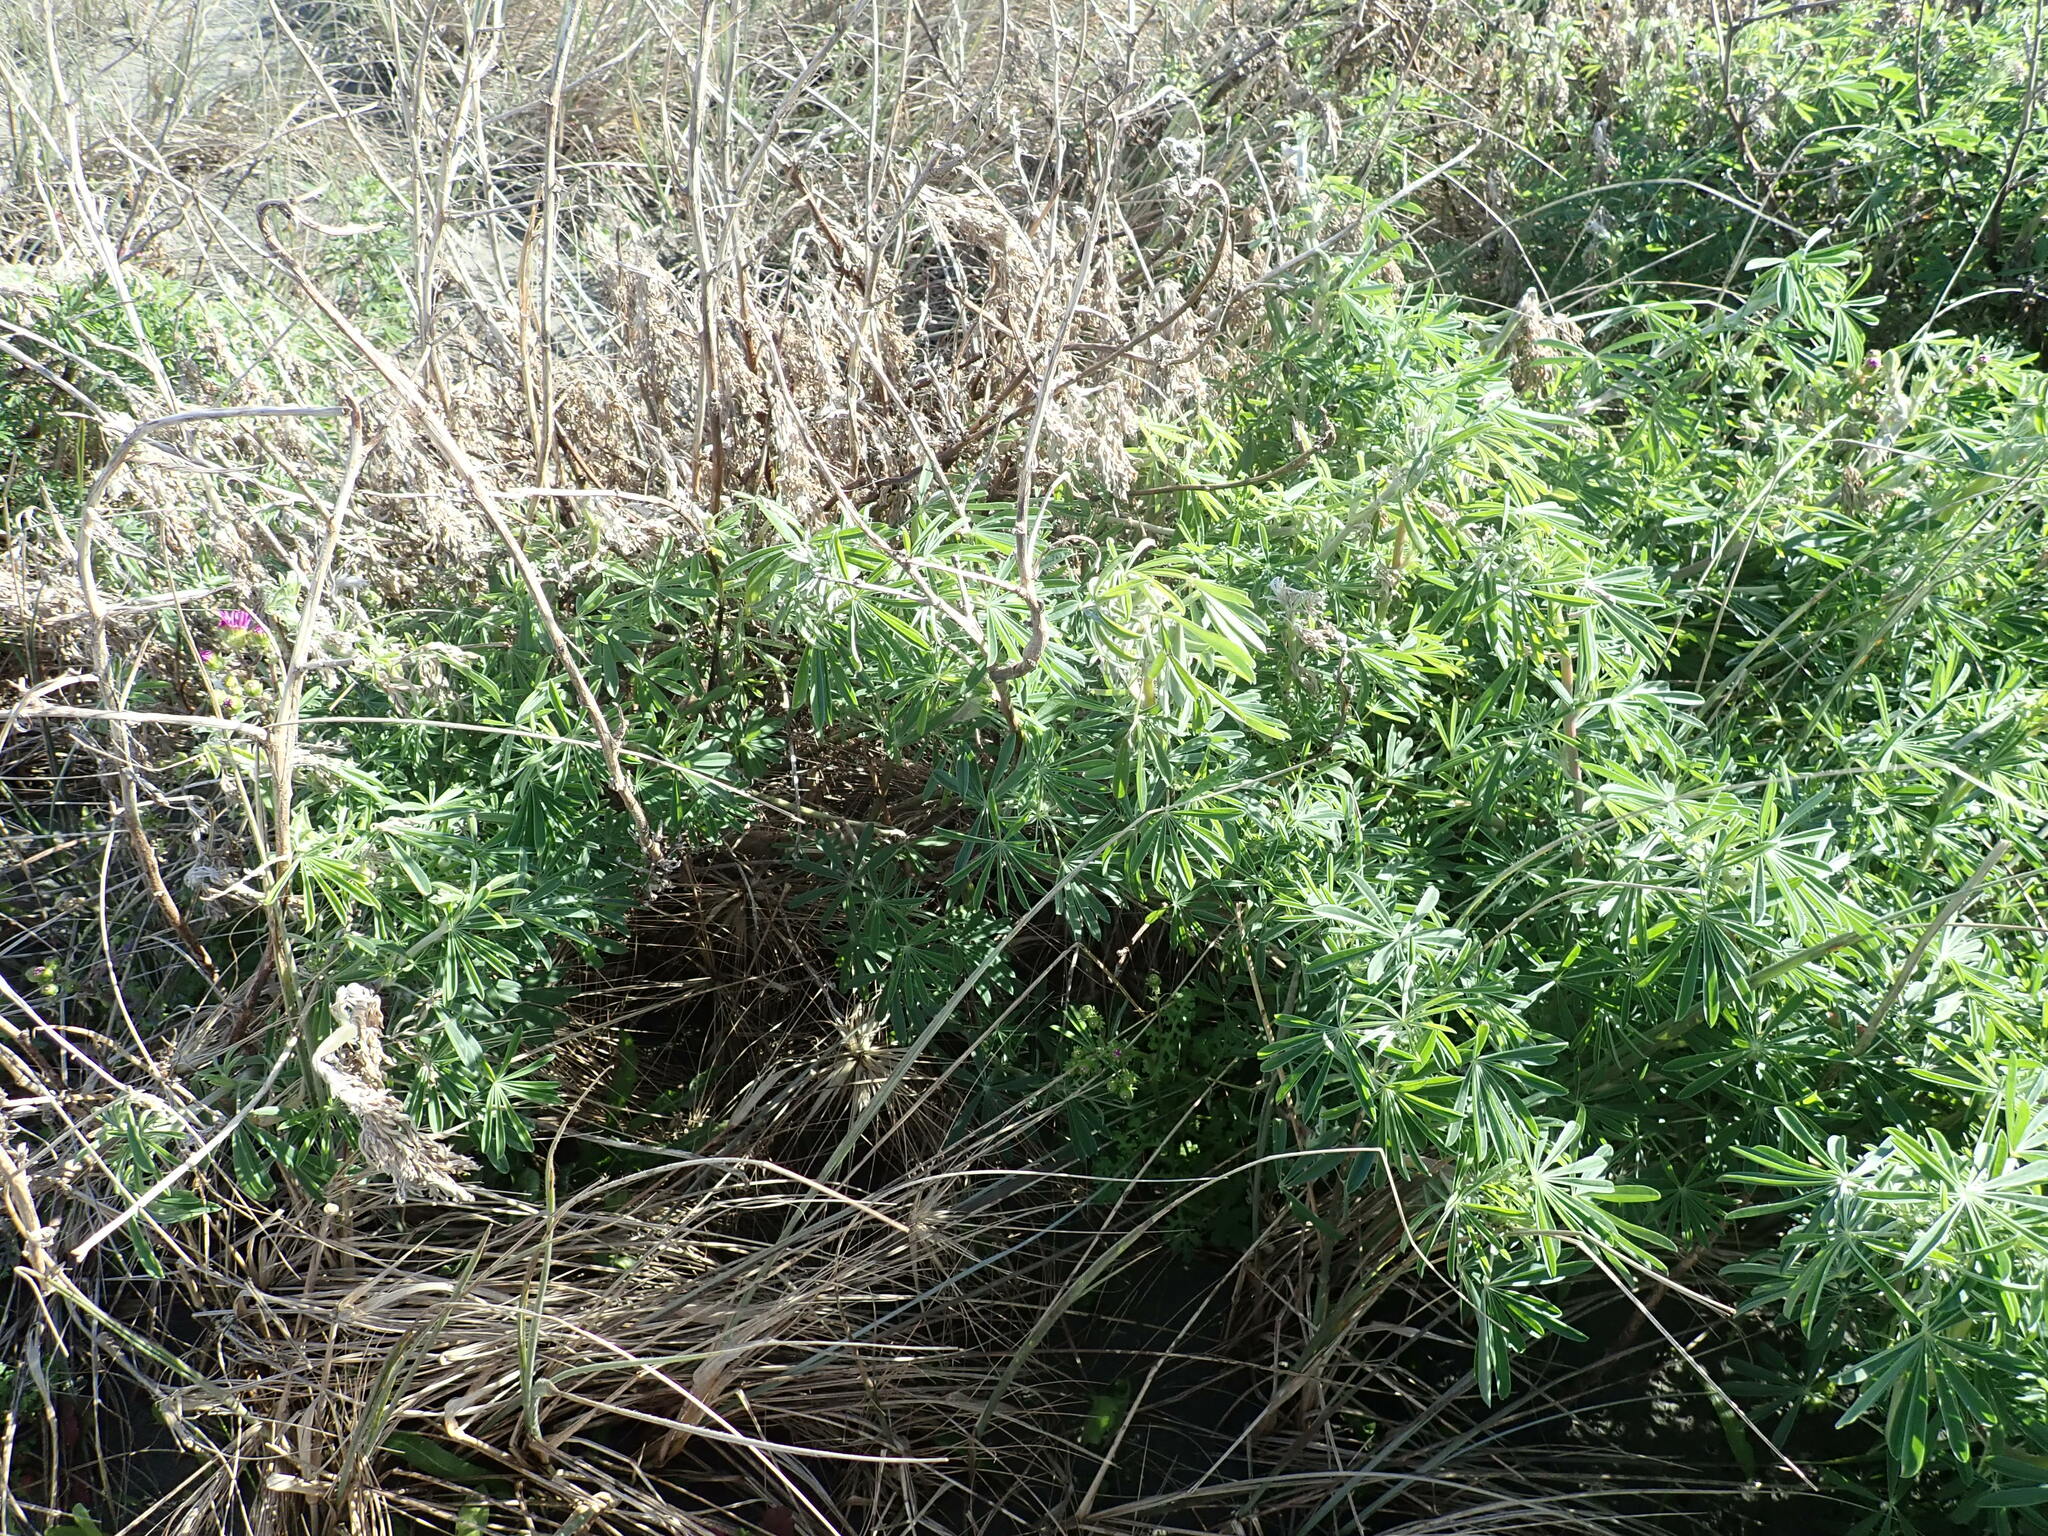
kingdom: Plantae
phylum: Tracheophyta
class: Magnoliopsida
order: Fabales
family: Fabaceae
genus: Lupinus
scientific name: Lupinus arboreus
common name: Yellow bush lupine
